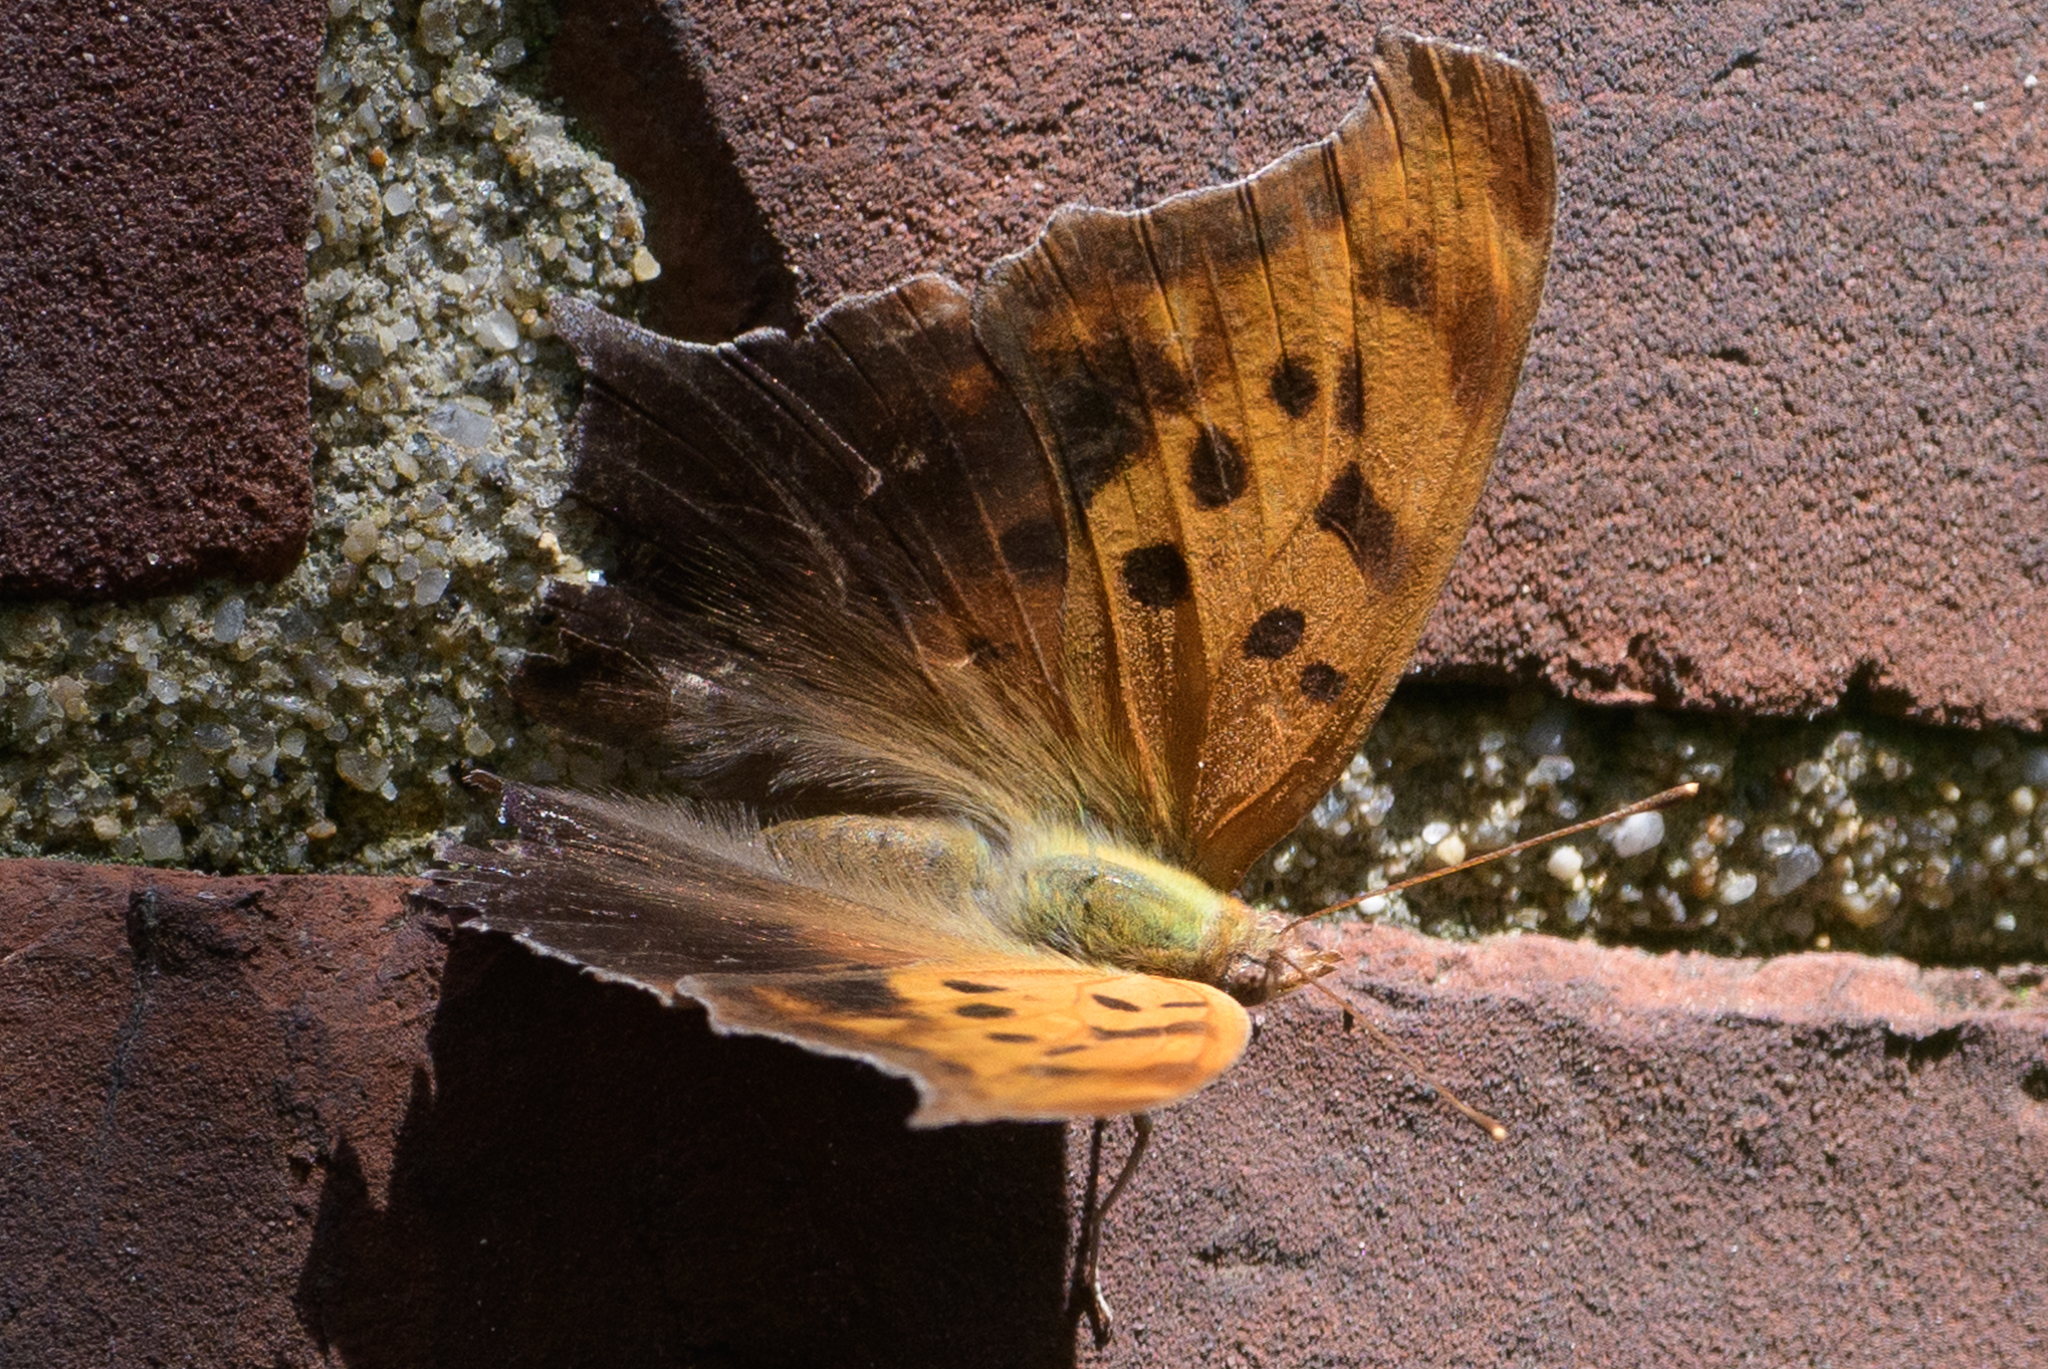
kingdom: Animalia
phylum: Arthropoda
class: Insecta
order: Lepidoptera
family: Nymphalidae
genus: Polygonia
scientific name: Polygonia interrogationis
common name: Question mark
